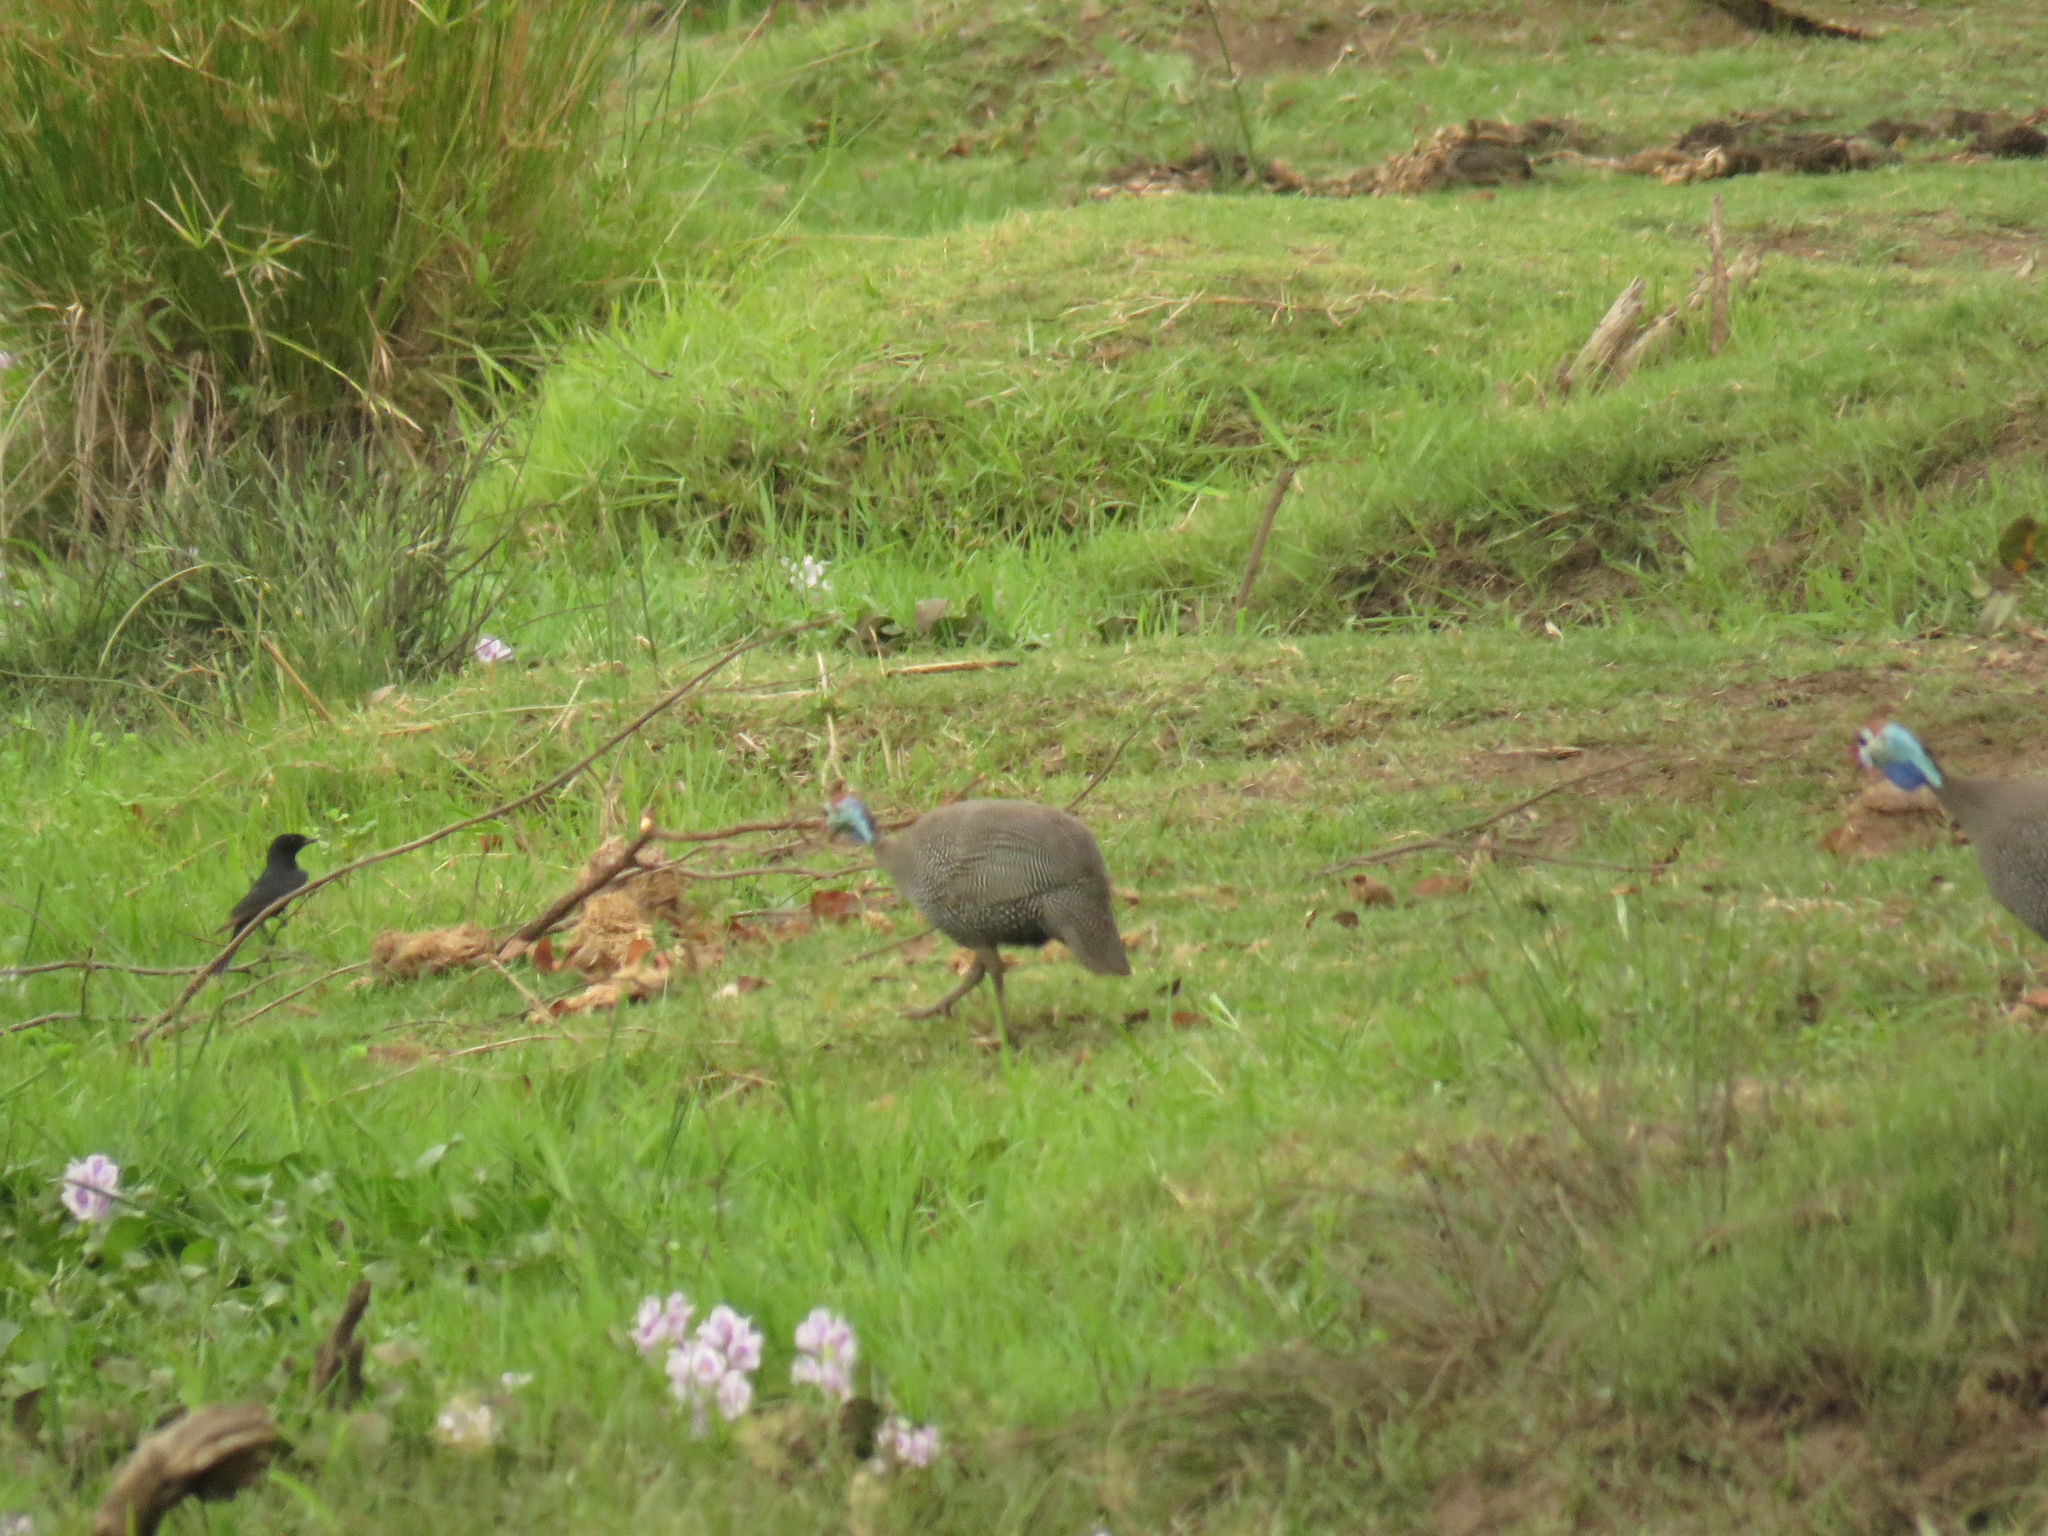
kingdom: Animalia
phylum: Chordata
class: Aves
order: Passeriformes
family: Dicruridae
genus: Dicrurus
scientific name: Dicrurus adsimilis
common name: Fork-tailed drongo
